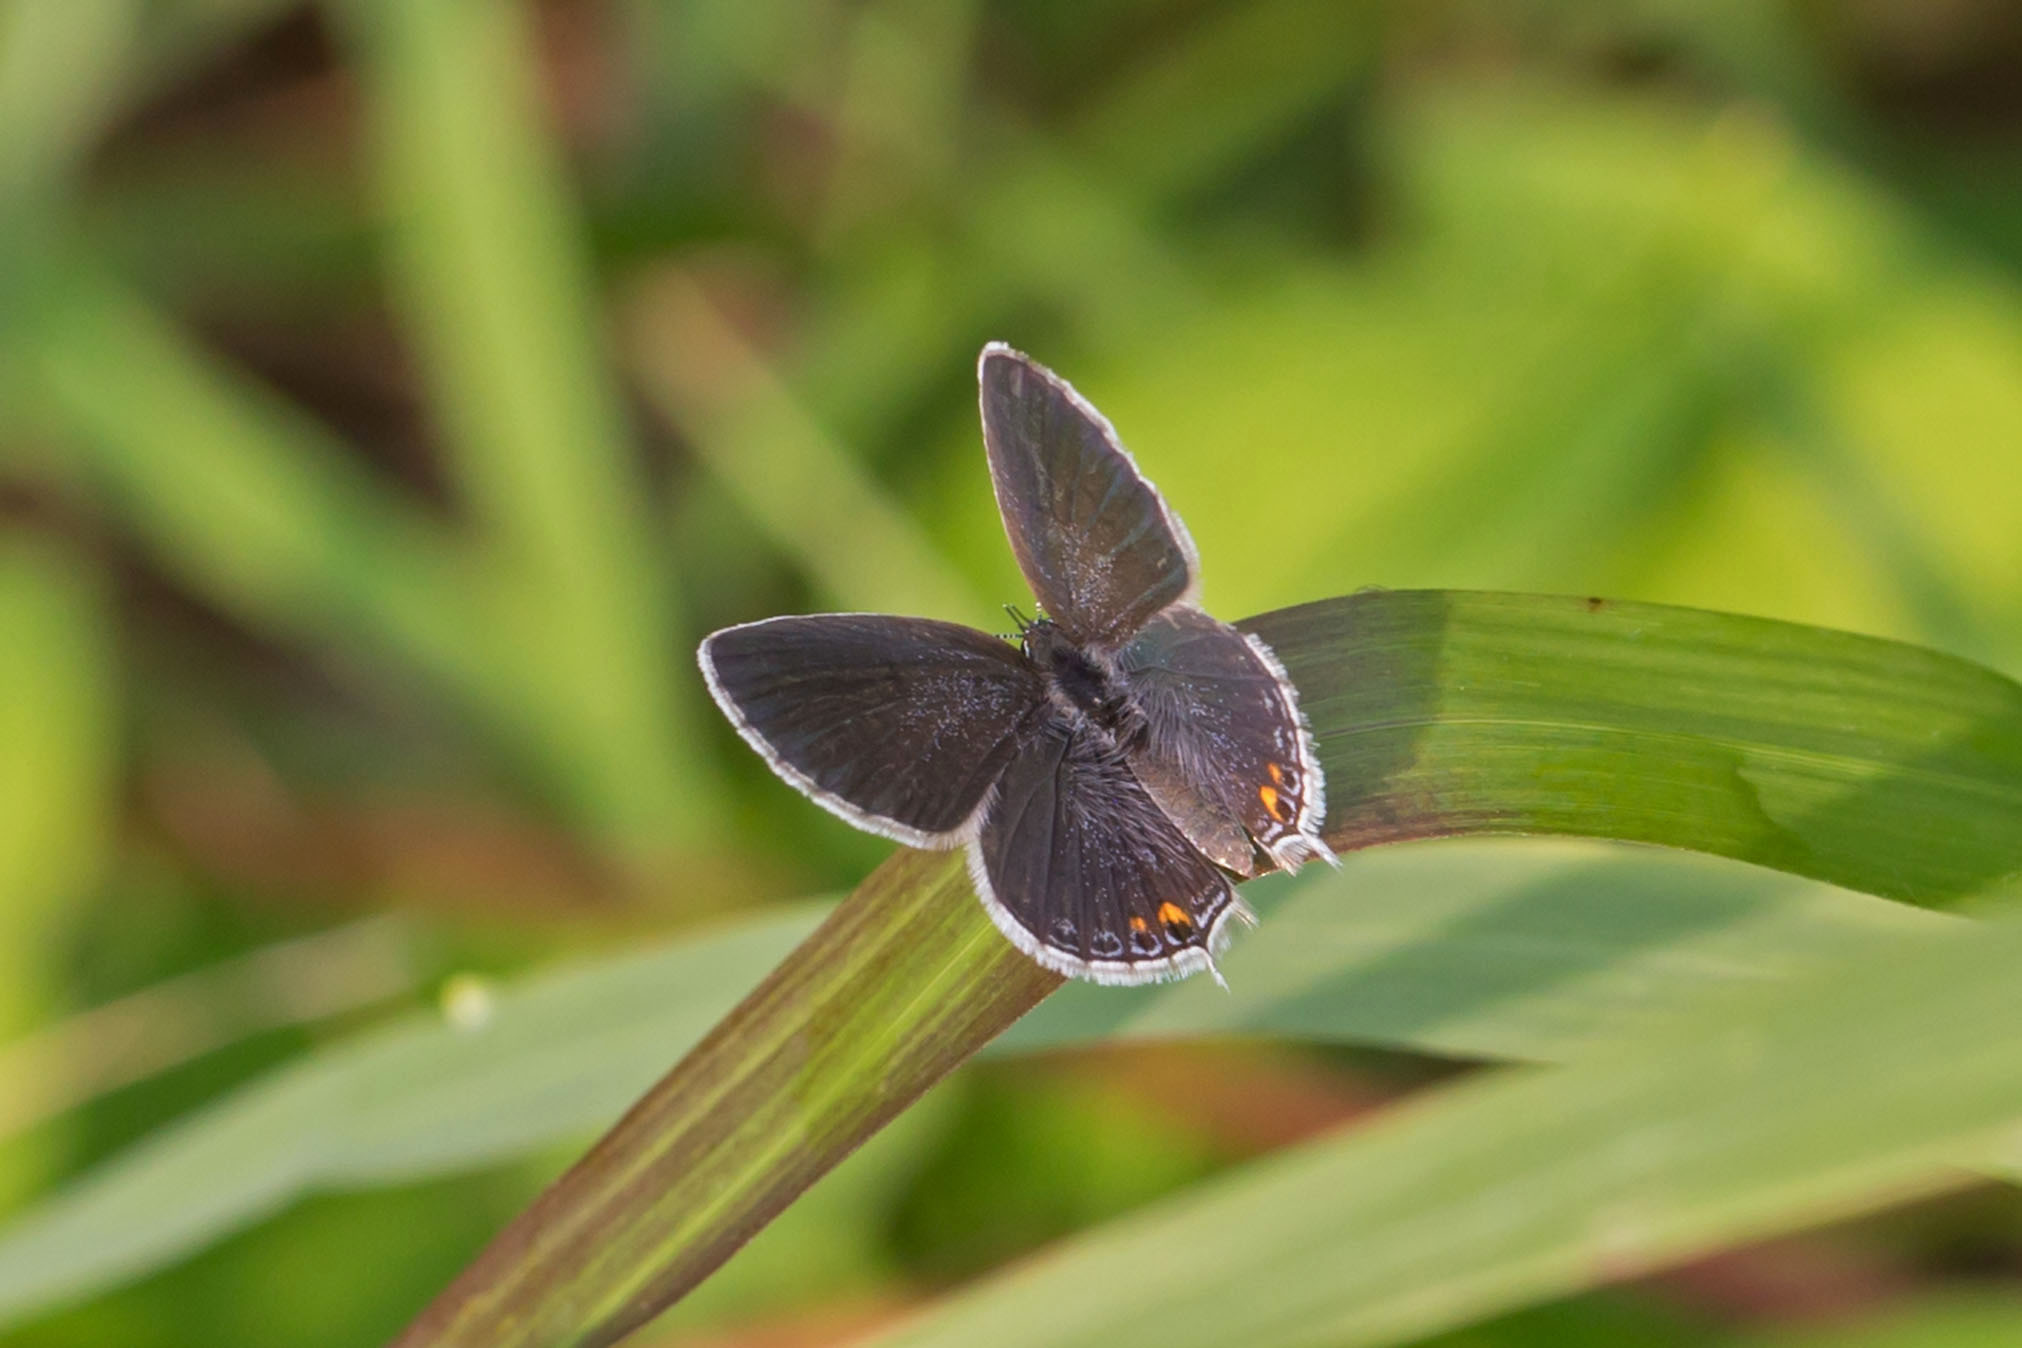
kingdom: Animalia
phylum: Arthropoda
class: Insecta
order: Lepidoptera
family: Lycaenidae
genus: Elkalyce
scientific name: Elkalyce comyntas
